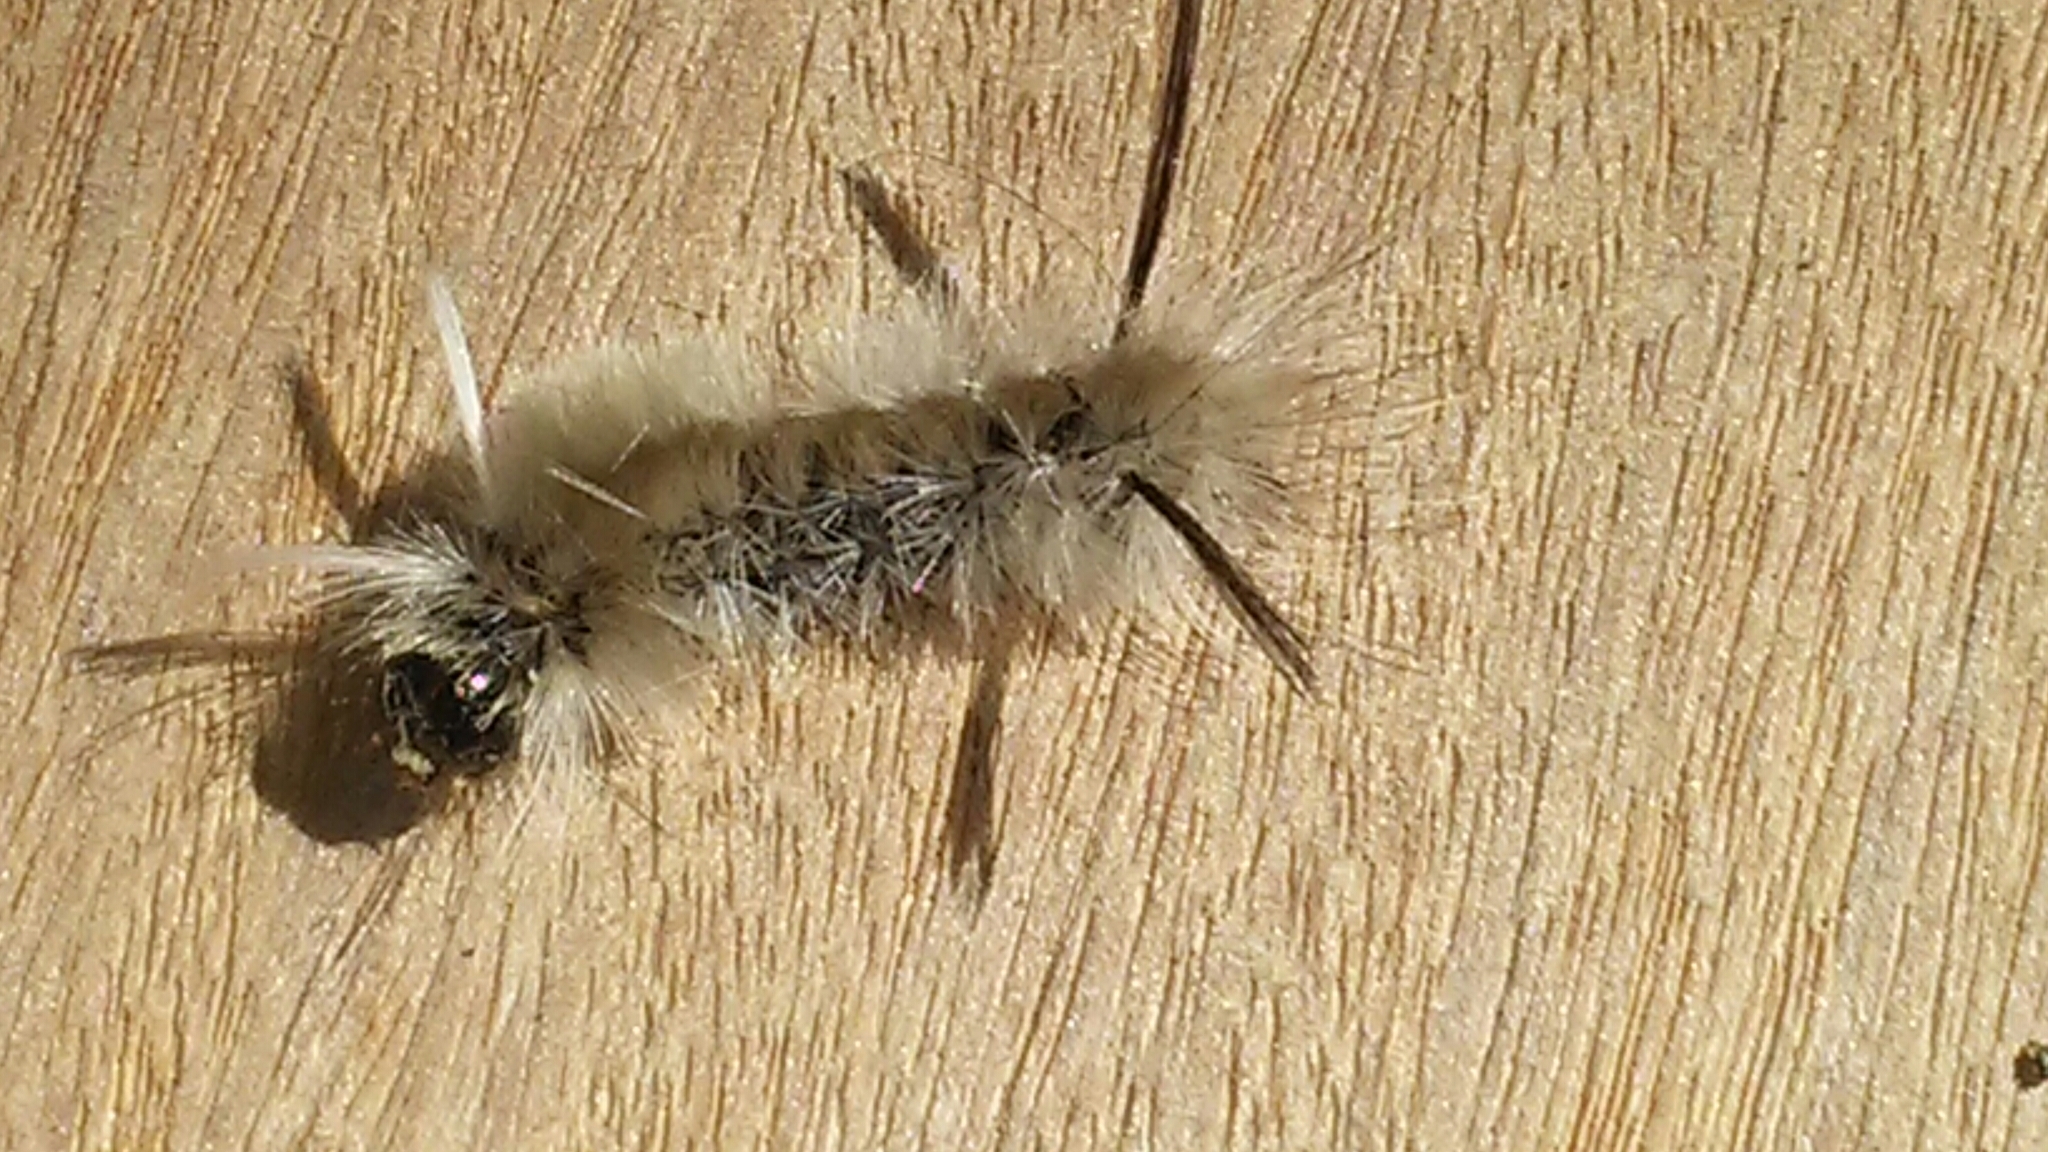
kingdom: Animalia
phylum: Arthropoda
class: Insecta
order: Lepidoptera
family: Erebidae
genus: Halysidota
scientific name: Halysidota tessellaris
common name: Banded tussock moth
